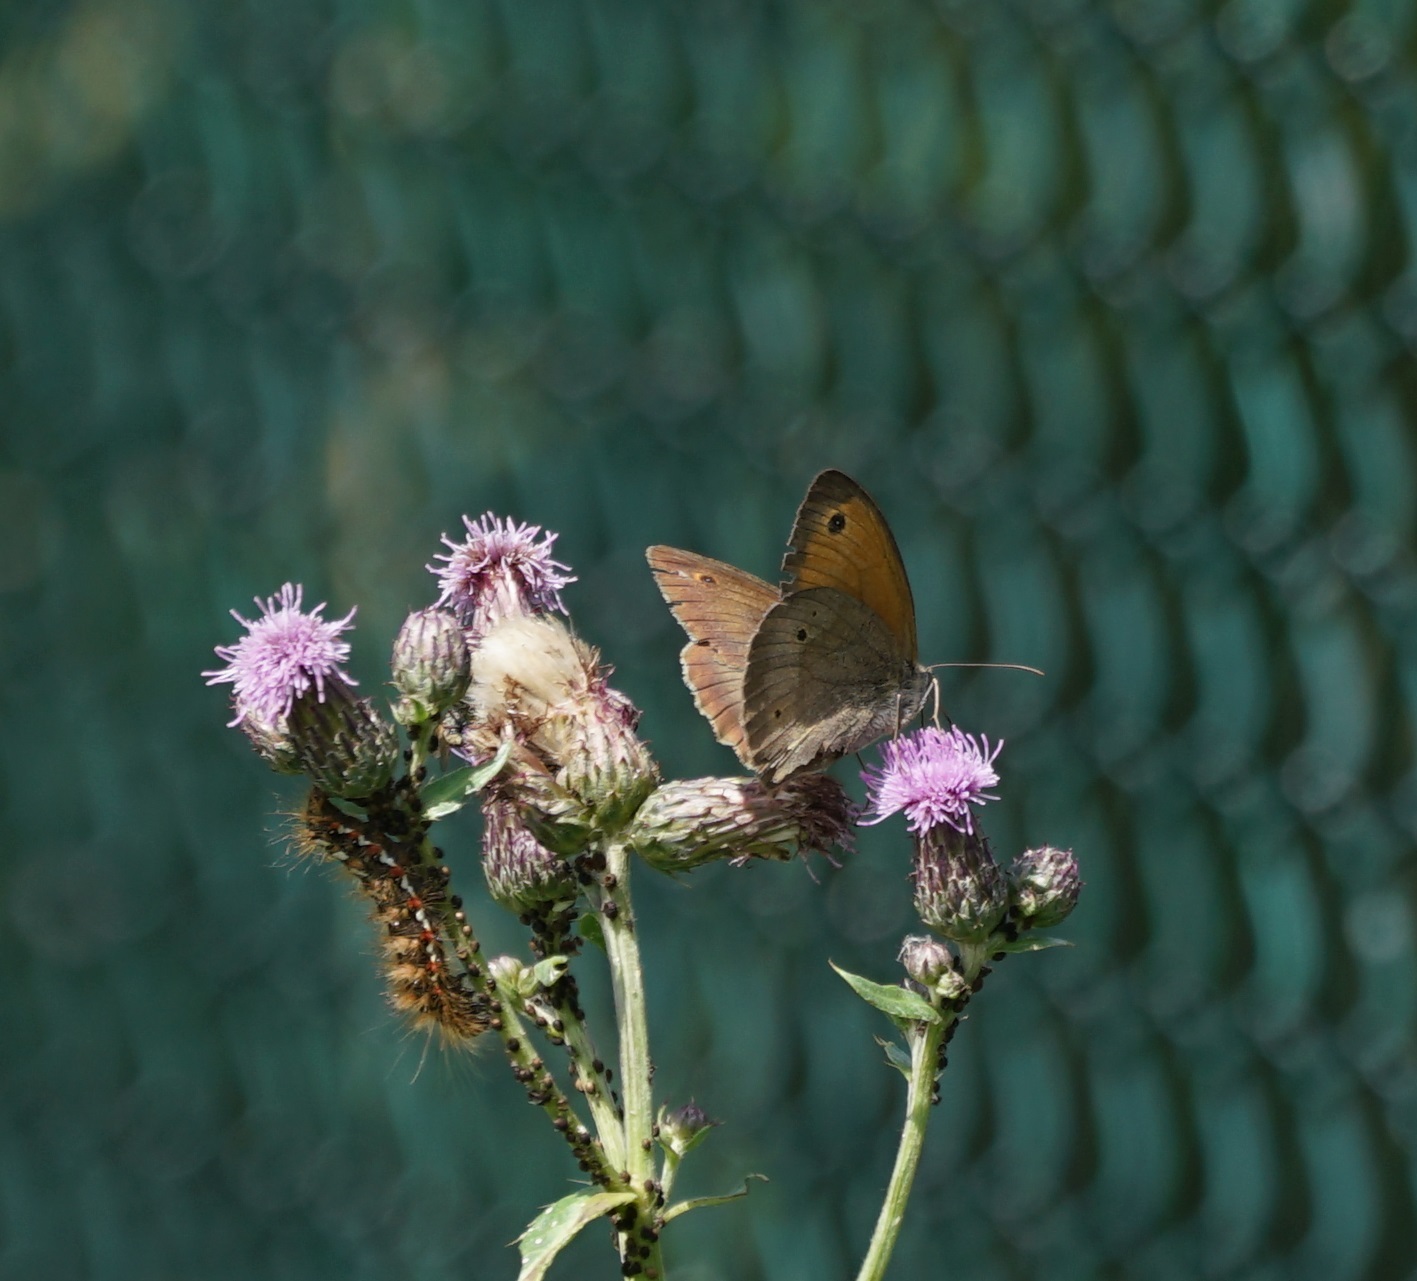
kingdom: Animalia
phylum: Arthropoda
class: Insecta
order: Lepidoptera
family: Noctuidae
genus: Acronicta
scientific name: Acronicta rumicis
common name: Knot grass
